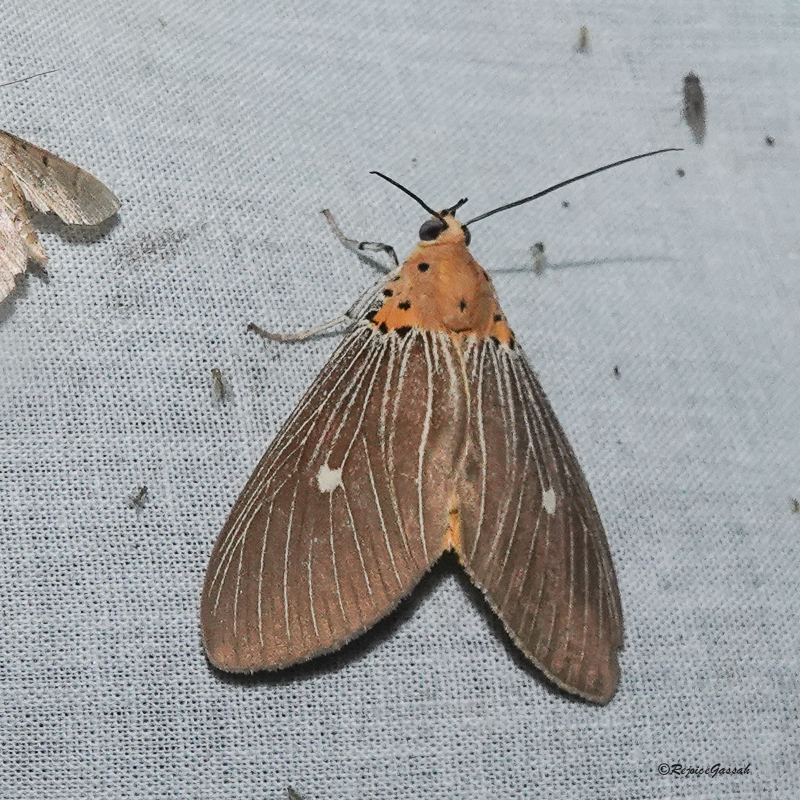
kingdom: Animalia
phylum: Arthropoda
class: Insecta
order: Lepidoptera
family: Erebidae
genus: Asota
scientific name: Asota caricae
